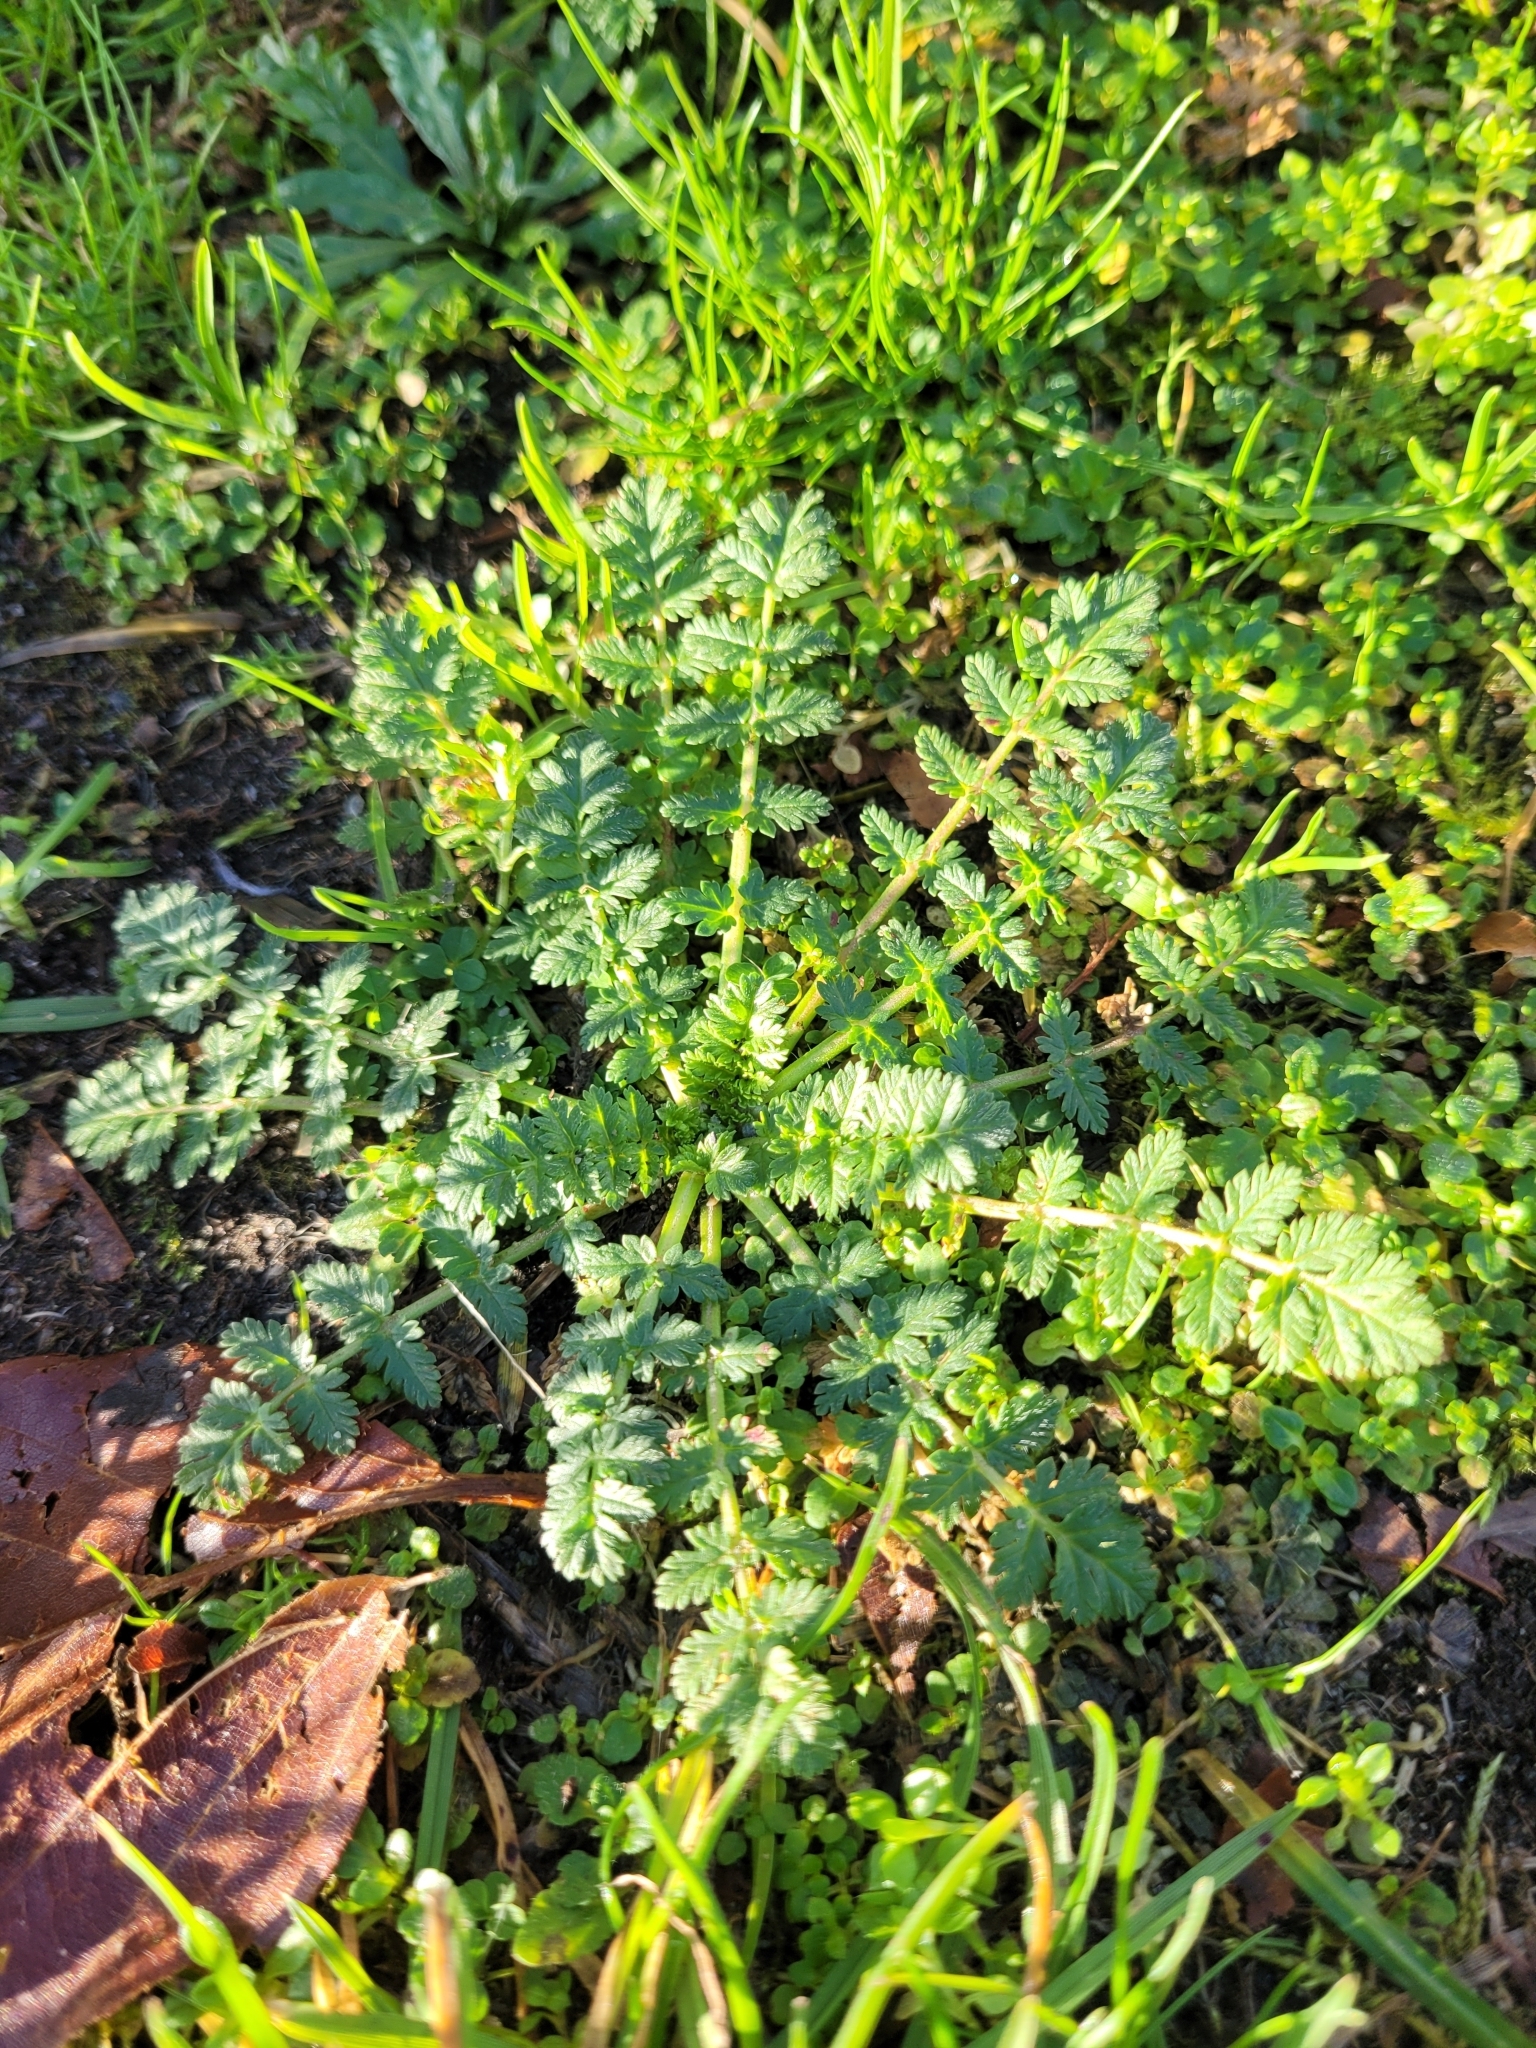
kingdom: Plantae
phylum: Tracheophyta
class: Magnoliopsida
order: Geraniales
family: Geraniaceae
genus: Erodium
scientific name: Erodium cicutarium
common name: Common stork's-bill
